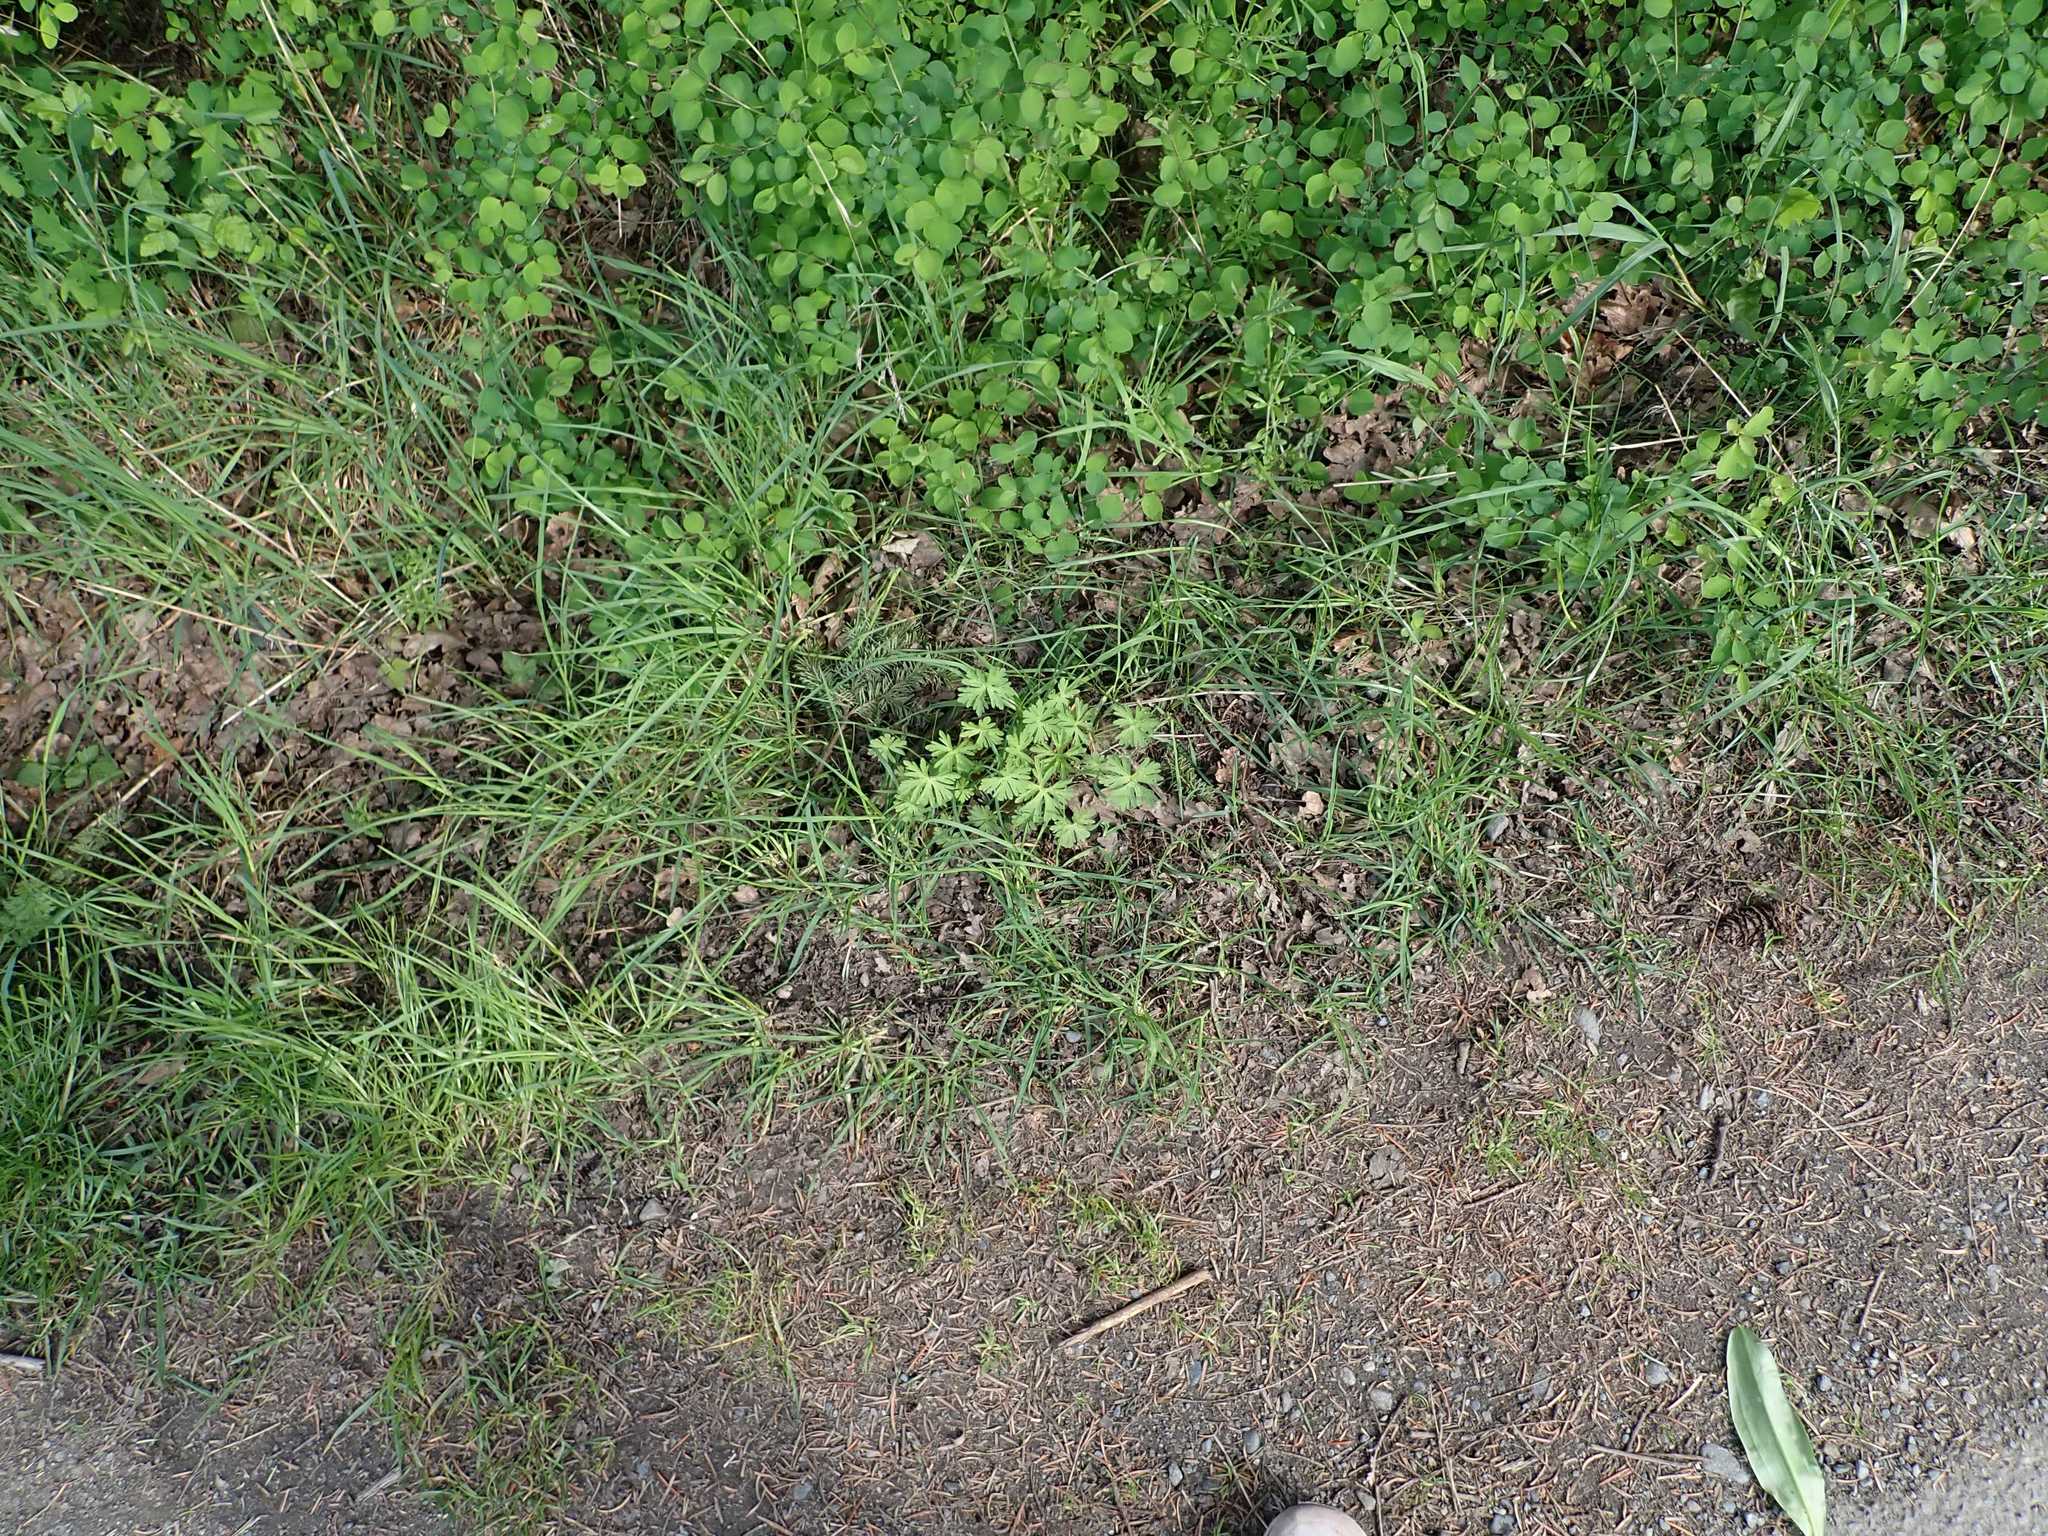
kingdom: Plantae
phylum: Tracheophyta
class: Magnoliopsida
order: Geraniales
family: Geraniaceae
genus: Geranium
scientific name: Geranium dissectum
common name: Cut-leaved crane's-bill
